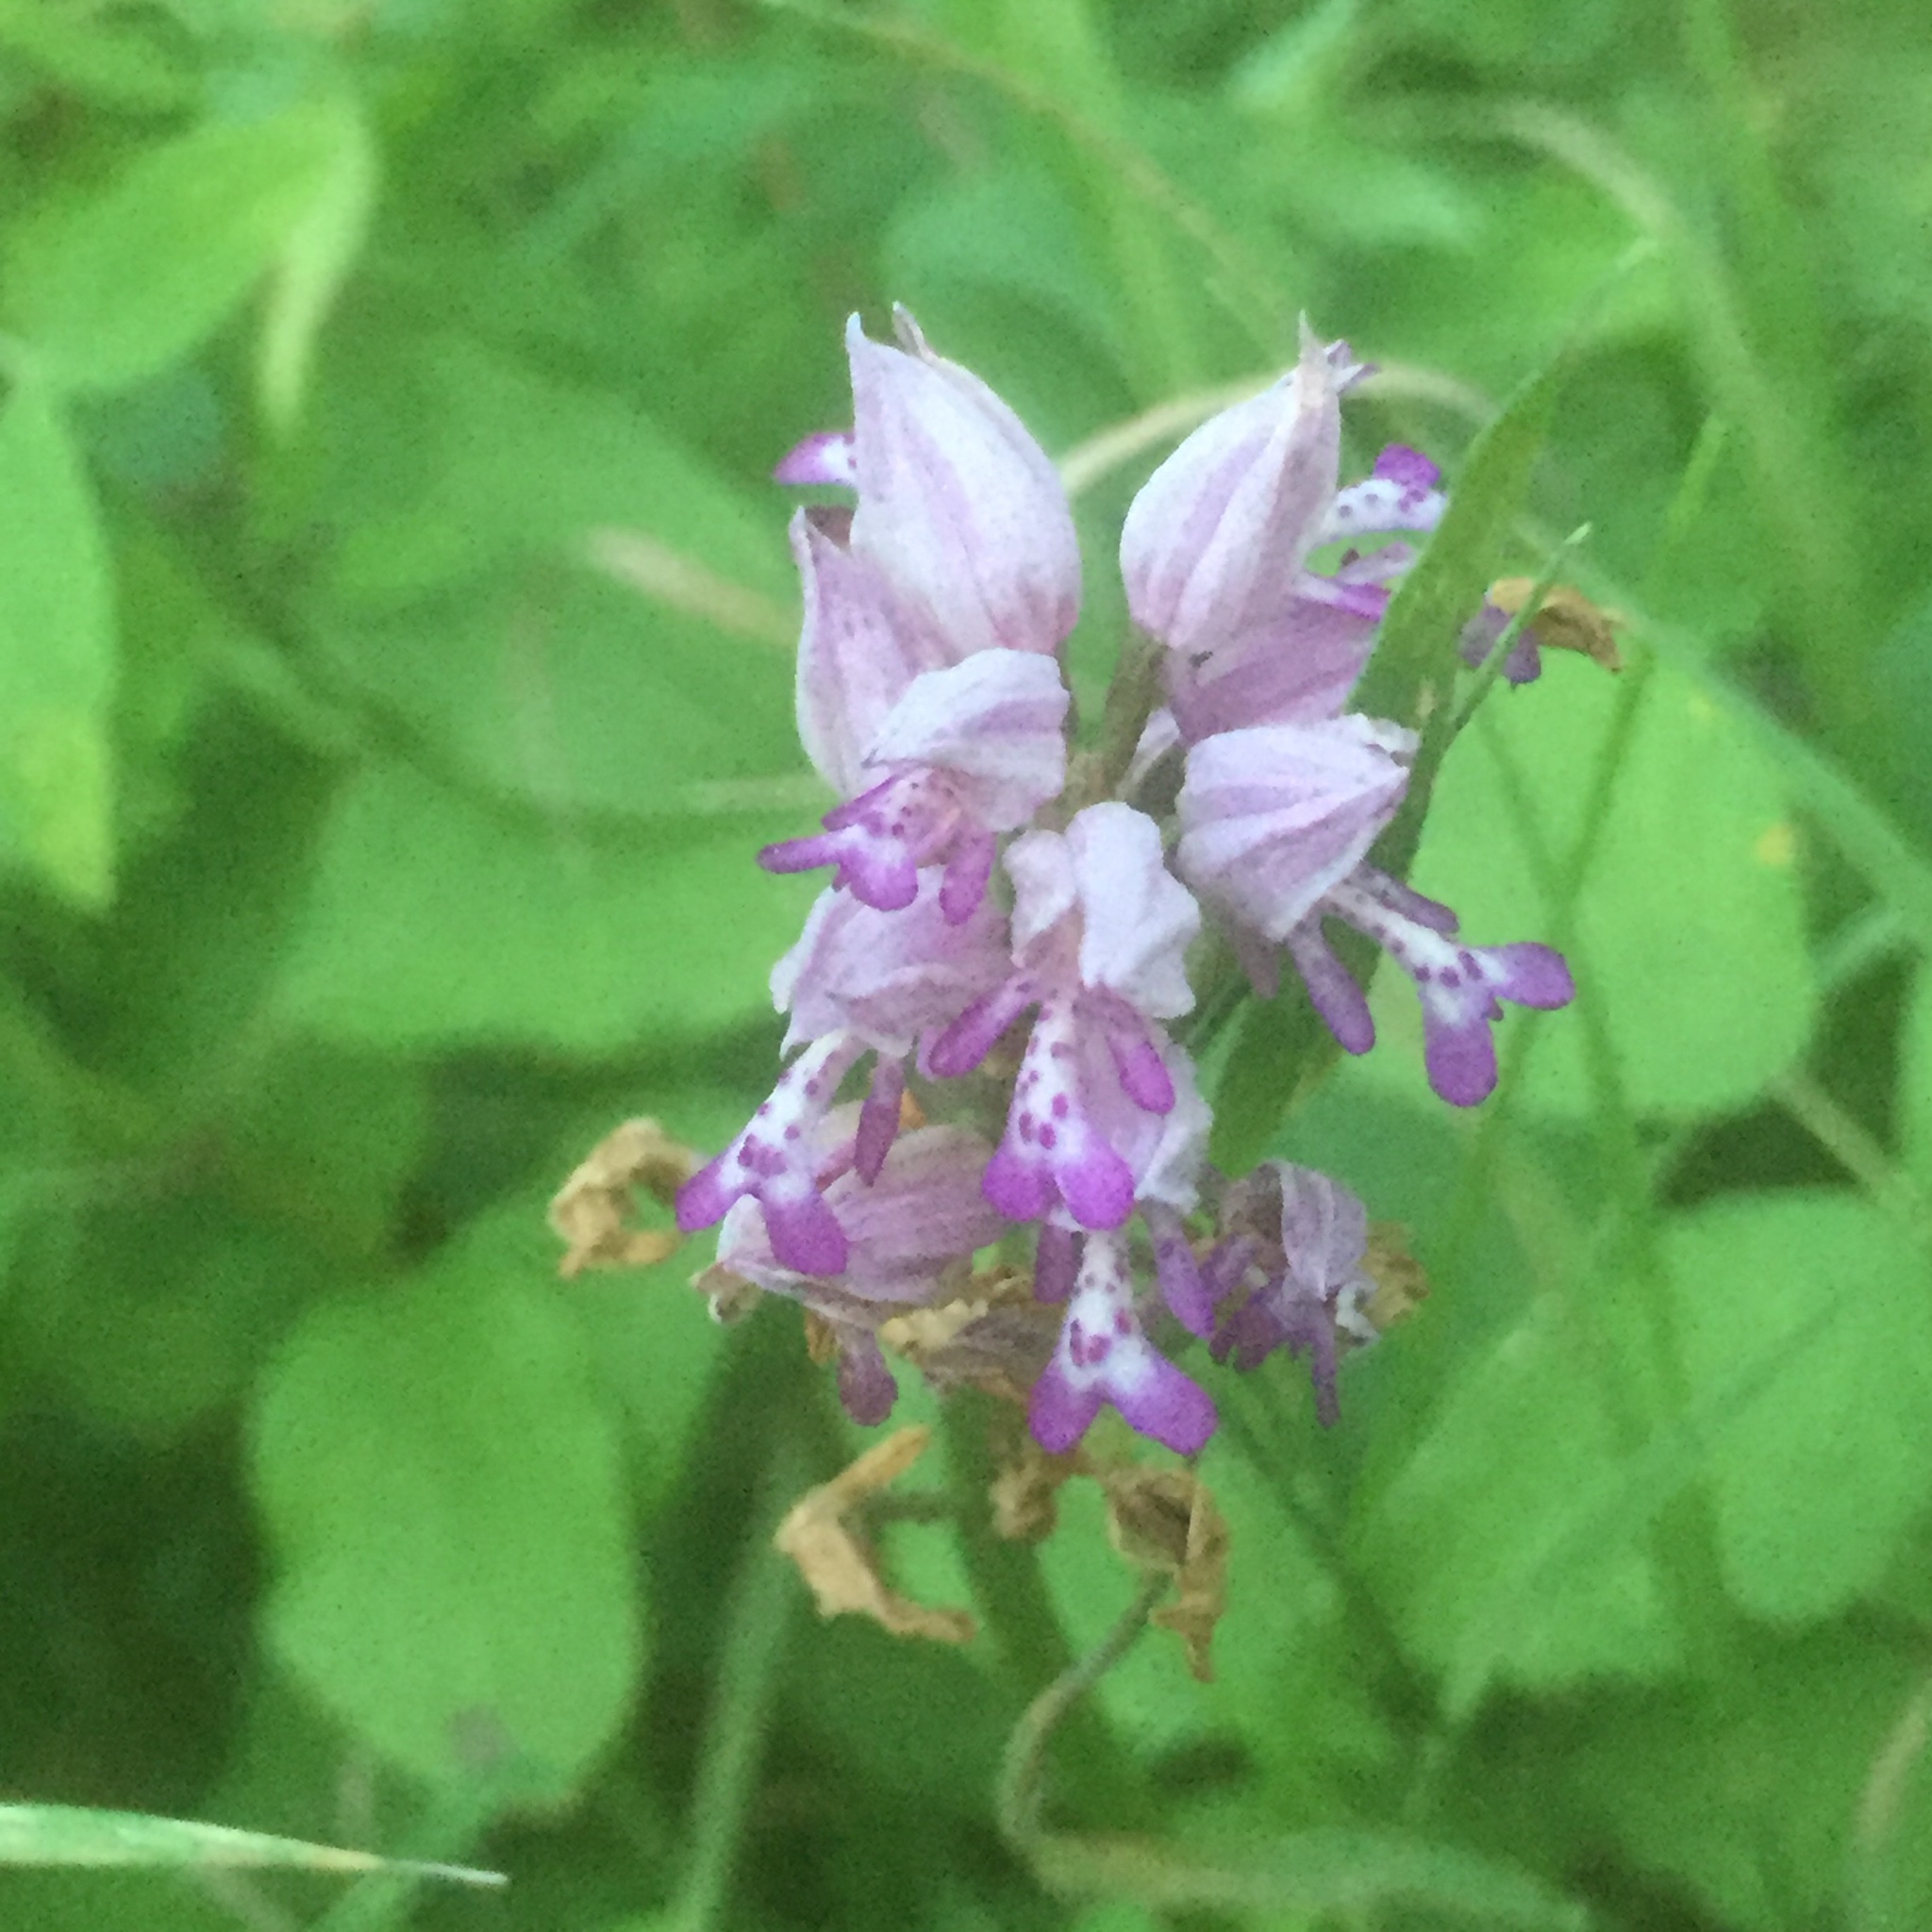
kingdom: Plantae
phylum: Tracheophyta
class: Liliopsida
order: Asparagales
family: Orchidaceae
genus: Orchis
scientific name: Orchis militaris
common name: Military orchid
